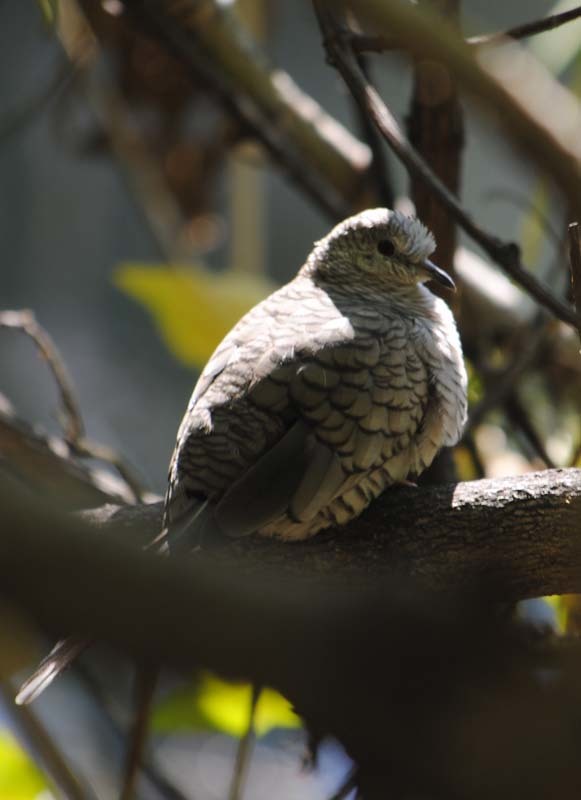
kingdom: Animalia
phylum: Chordata
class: Aves
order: Columbiformes
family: Columbidae
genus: Columbina
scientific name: Columbina inca
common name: Inca dove
